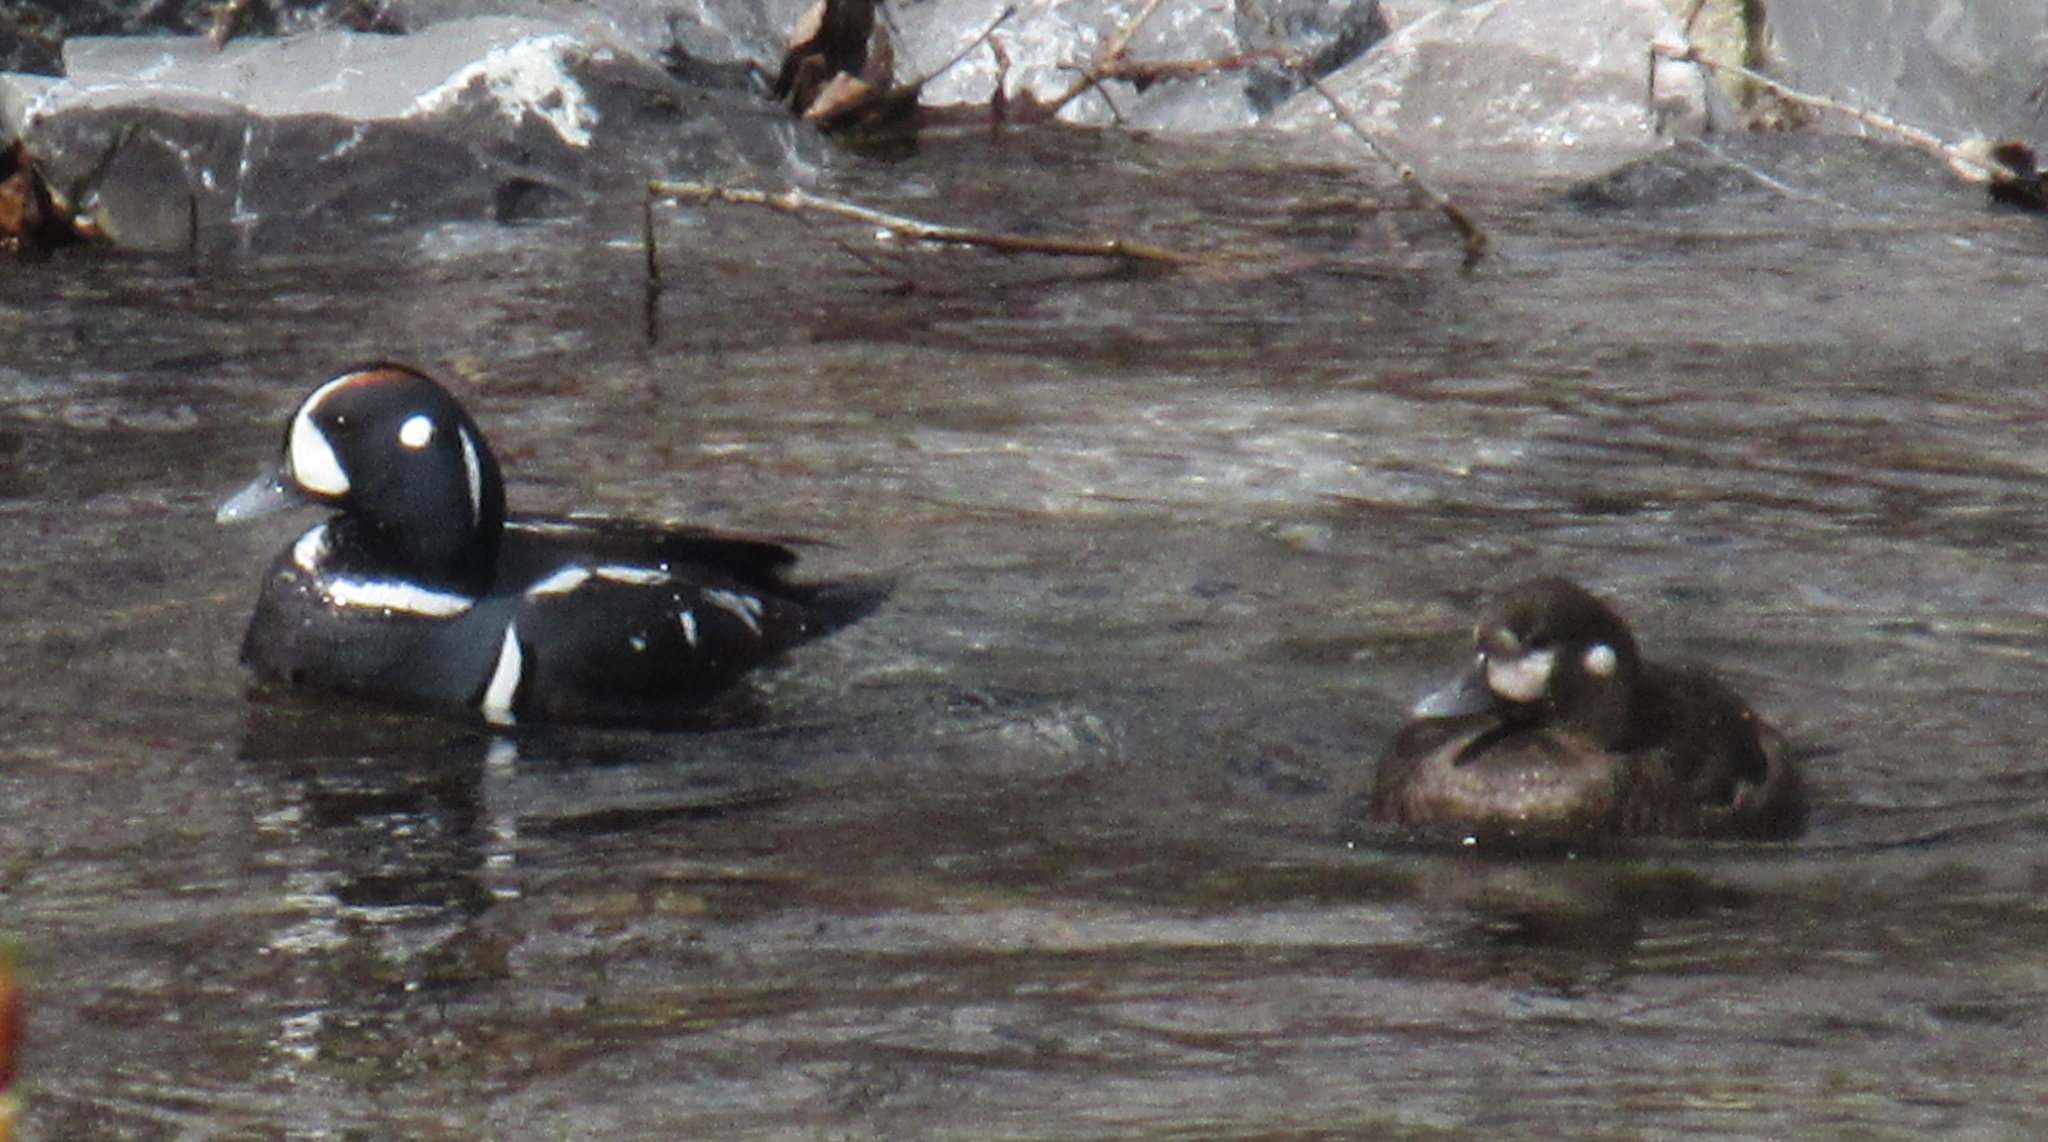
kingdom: Animalia
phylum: Chordata
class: Aves
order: Anseriformes
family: Anatidae
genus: Histrionicus
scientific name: Histrionicus histrionicus
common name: Harlequin duck
